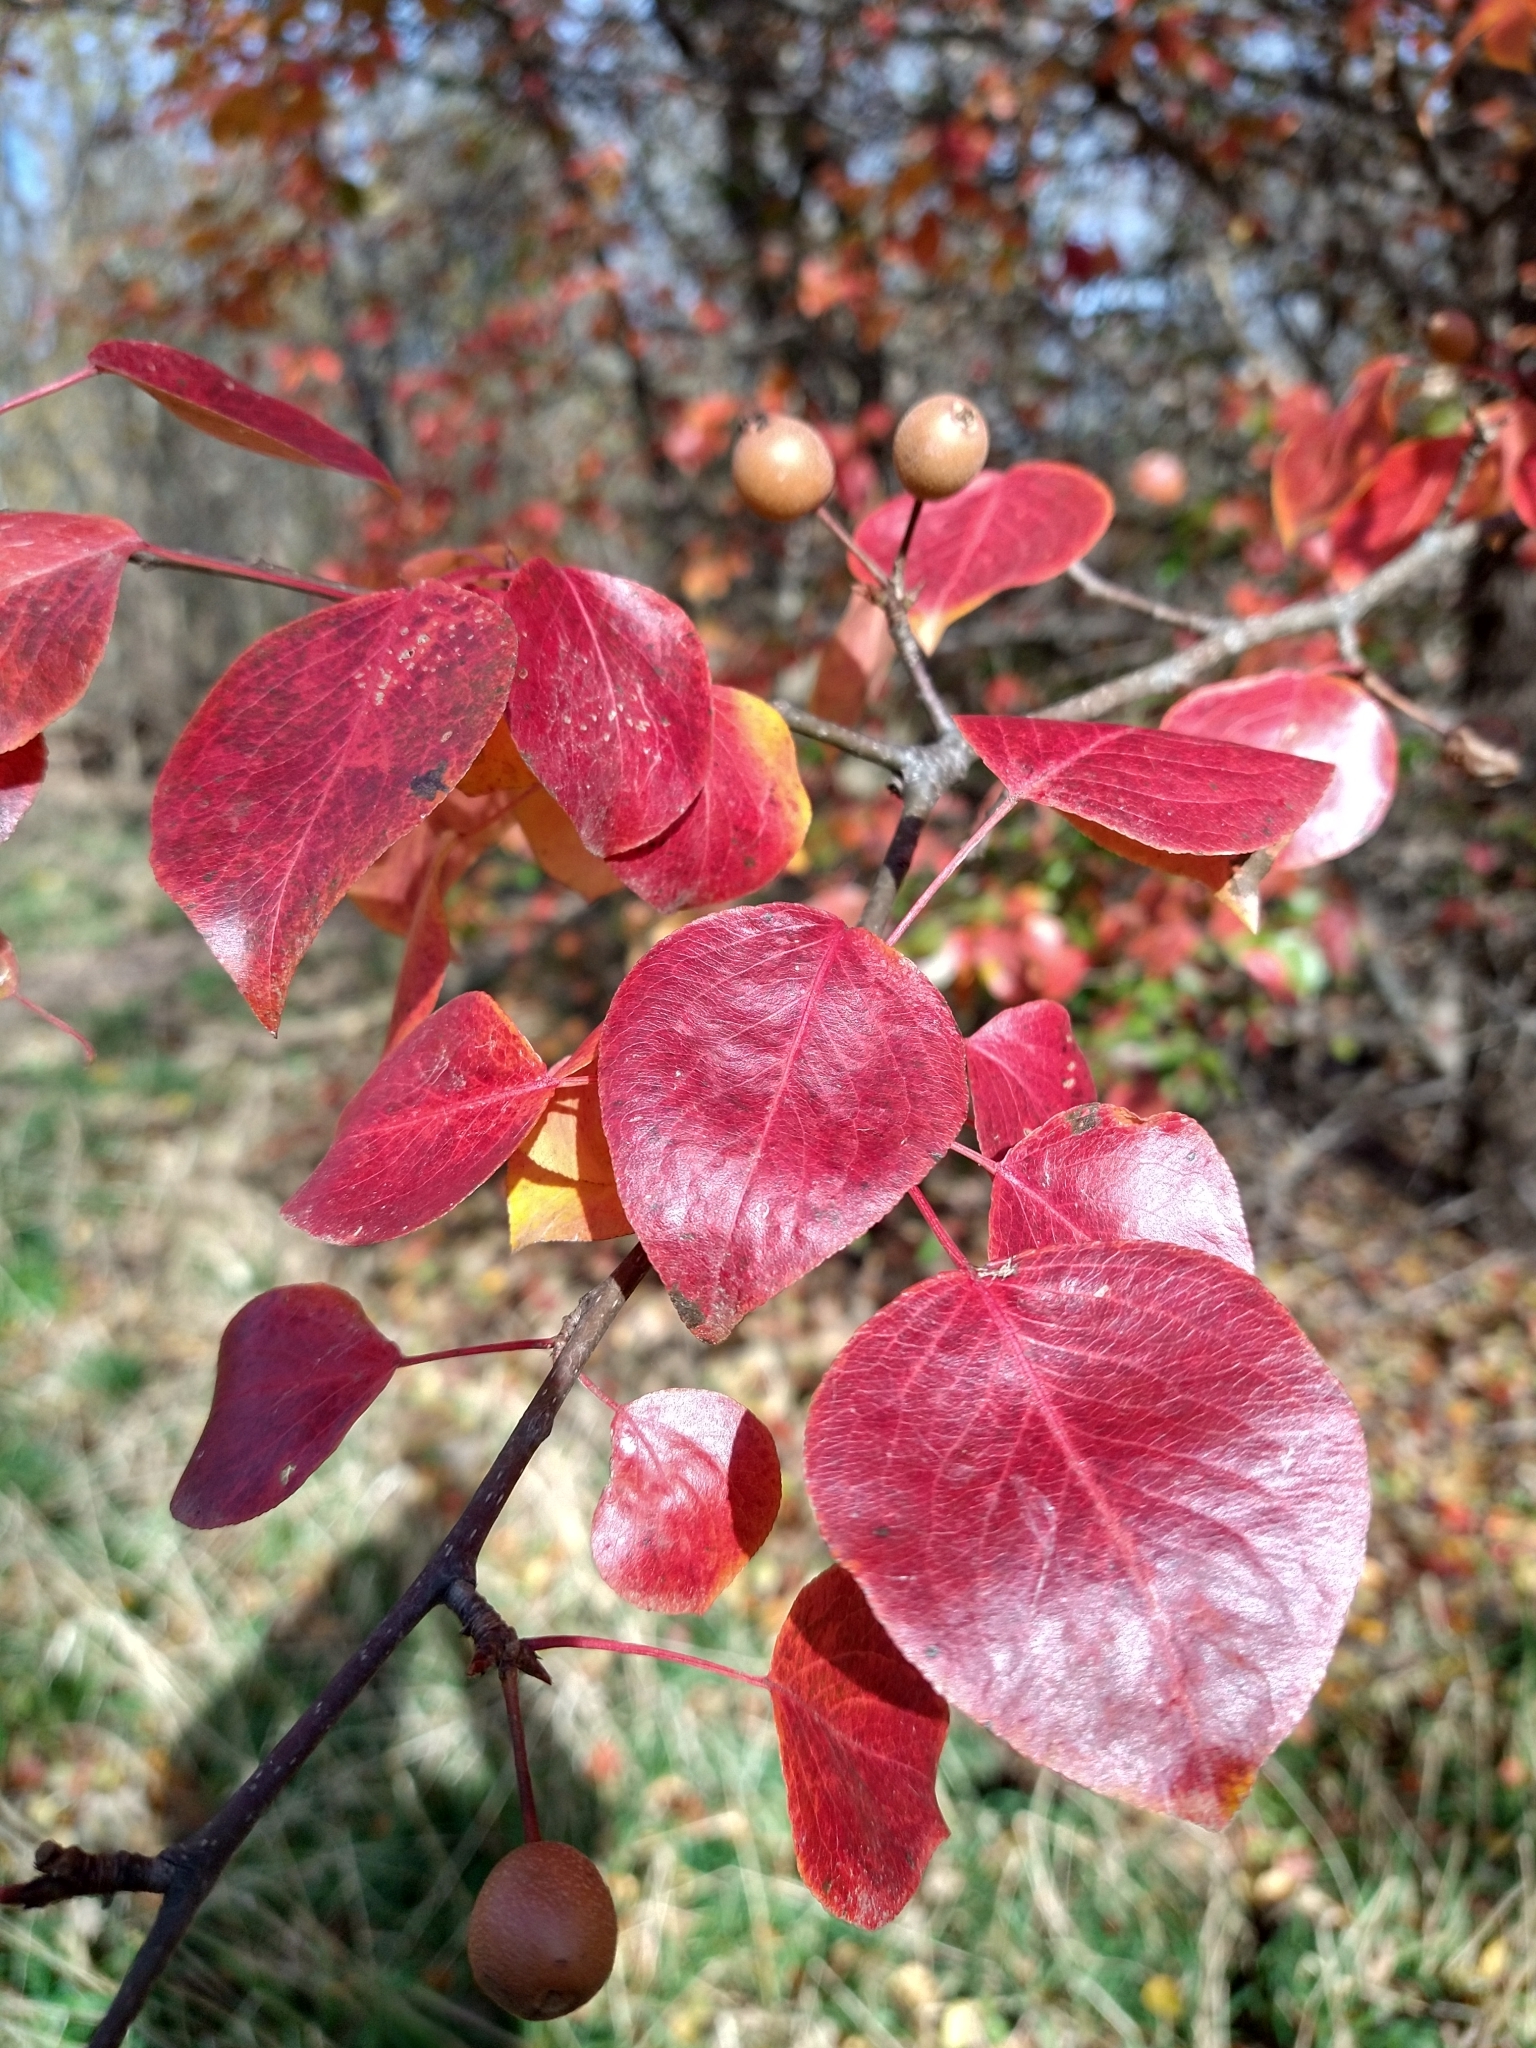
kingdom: Plantae
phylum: Tracheophyta
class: Magnoliopsida
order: Rosales
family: Rosaceae
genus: Pyrus
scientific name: Pyrus calleryana
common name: Callery pear
